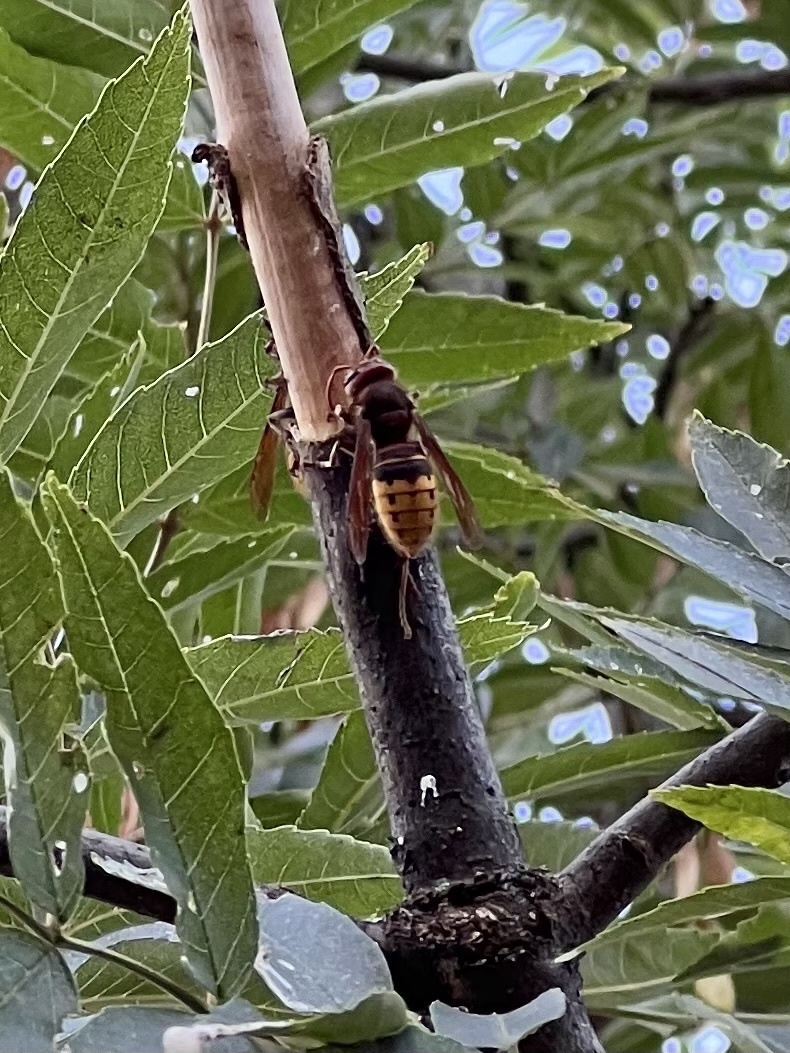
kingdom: Animalia
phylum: Arthropoda
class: Insecta
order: Hymenoptera
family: Vespidae
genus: Vespa
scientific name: Vespa crabro
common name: Hornet
